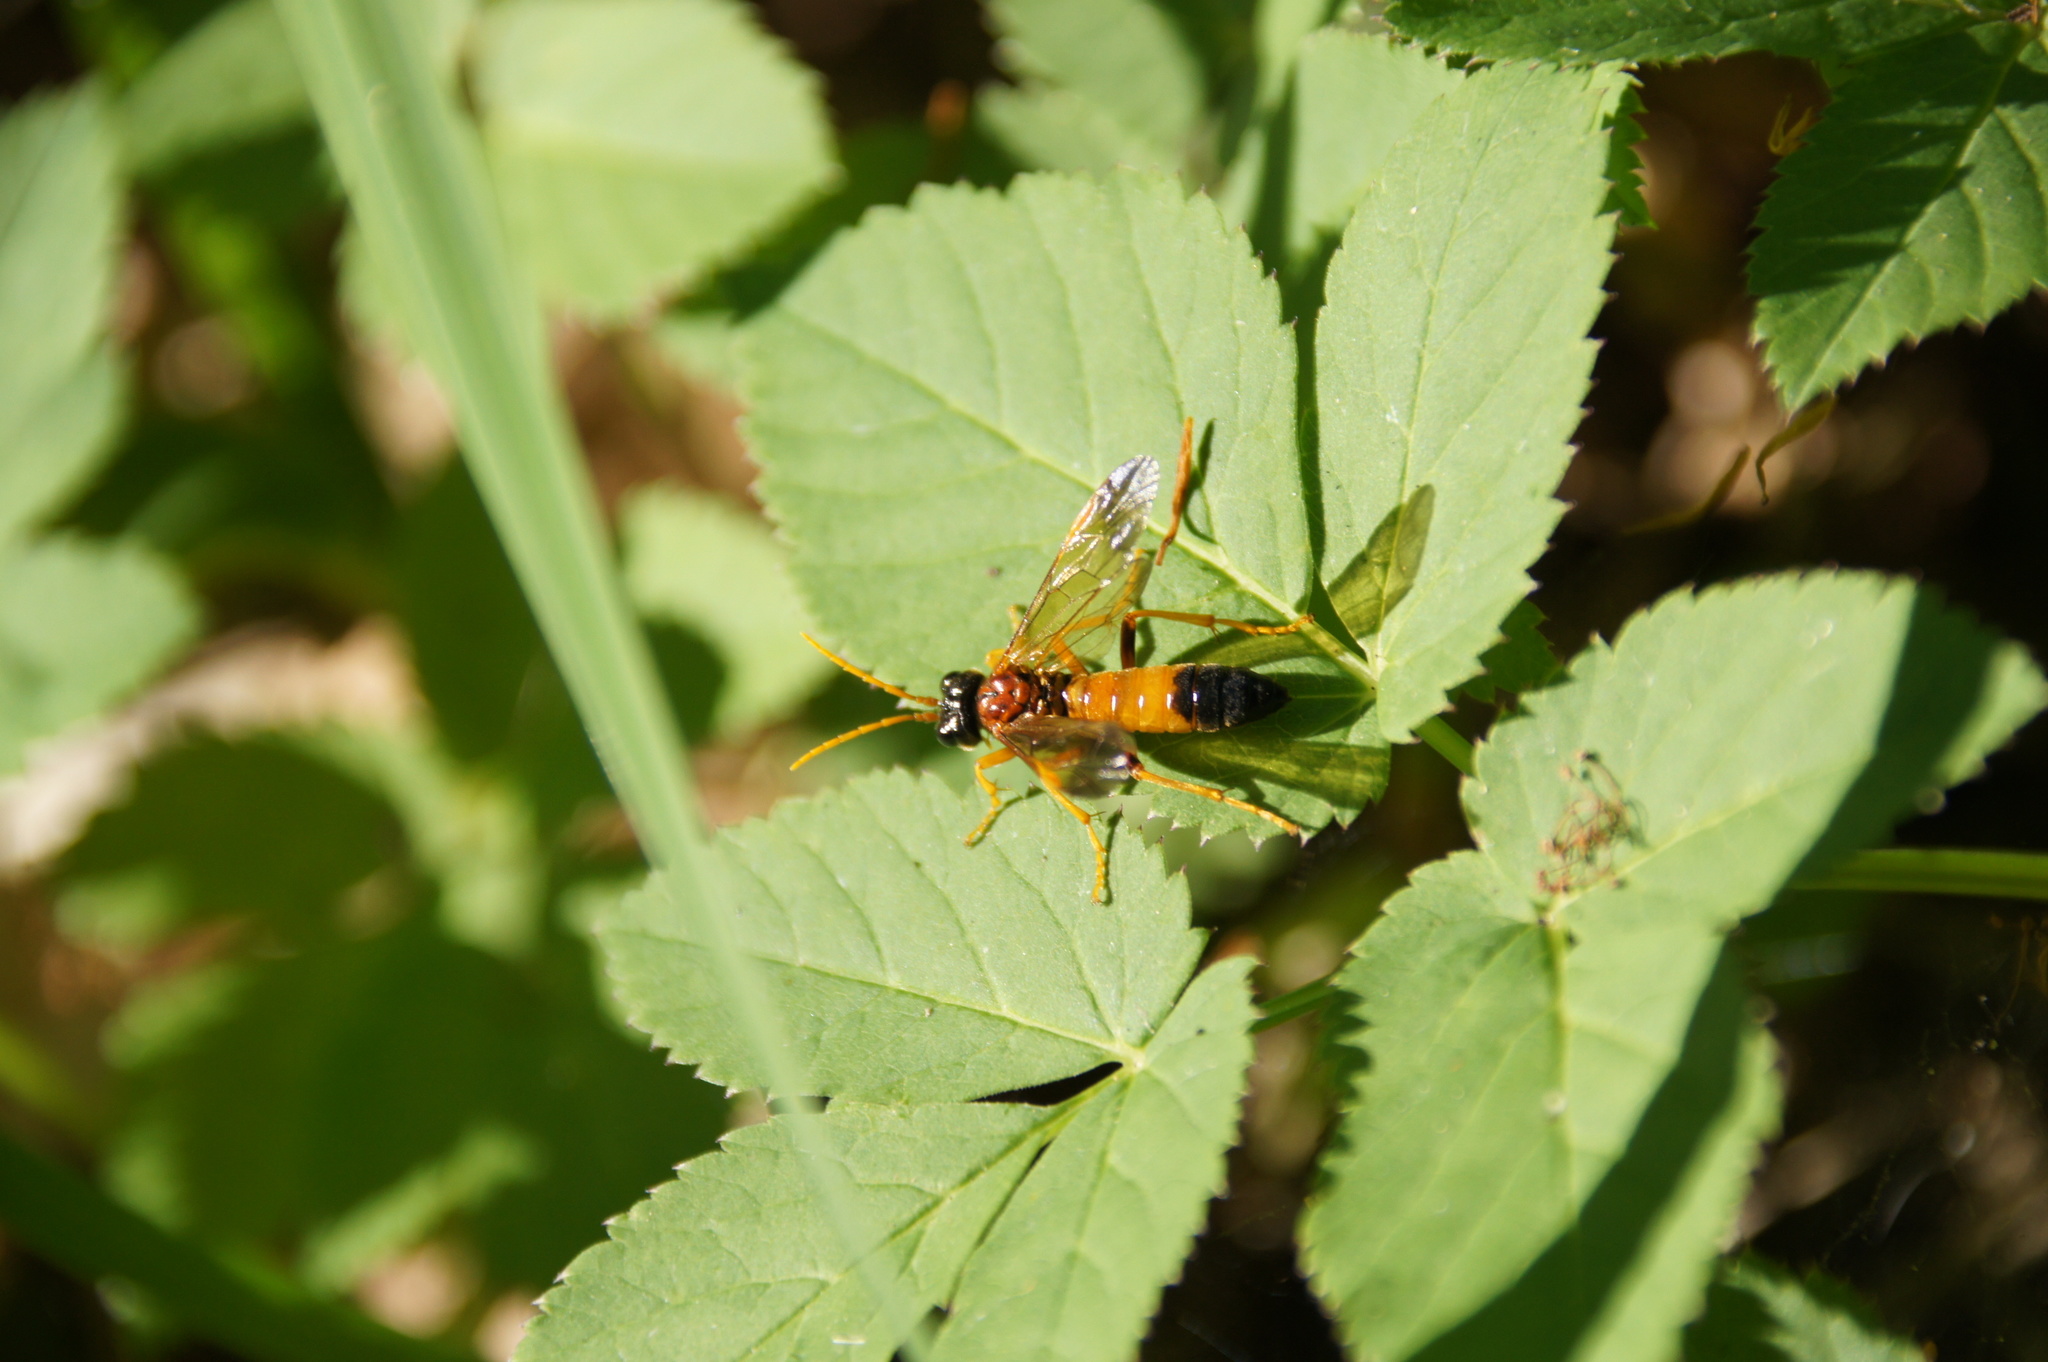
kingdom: Animalia
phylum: Arthropoda
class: Insecta
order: Hymenoptera
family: Tenthredinidae
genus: Tenthredo
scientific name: Tenthredo campestris
